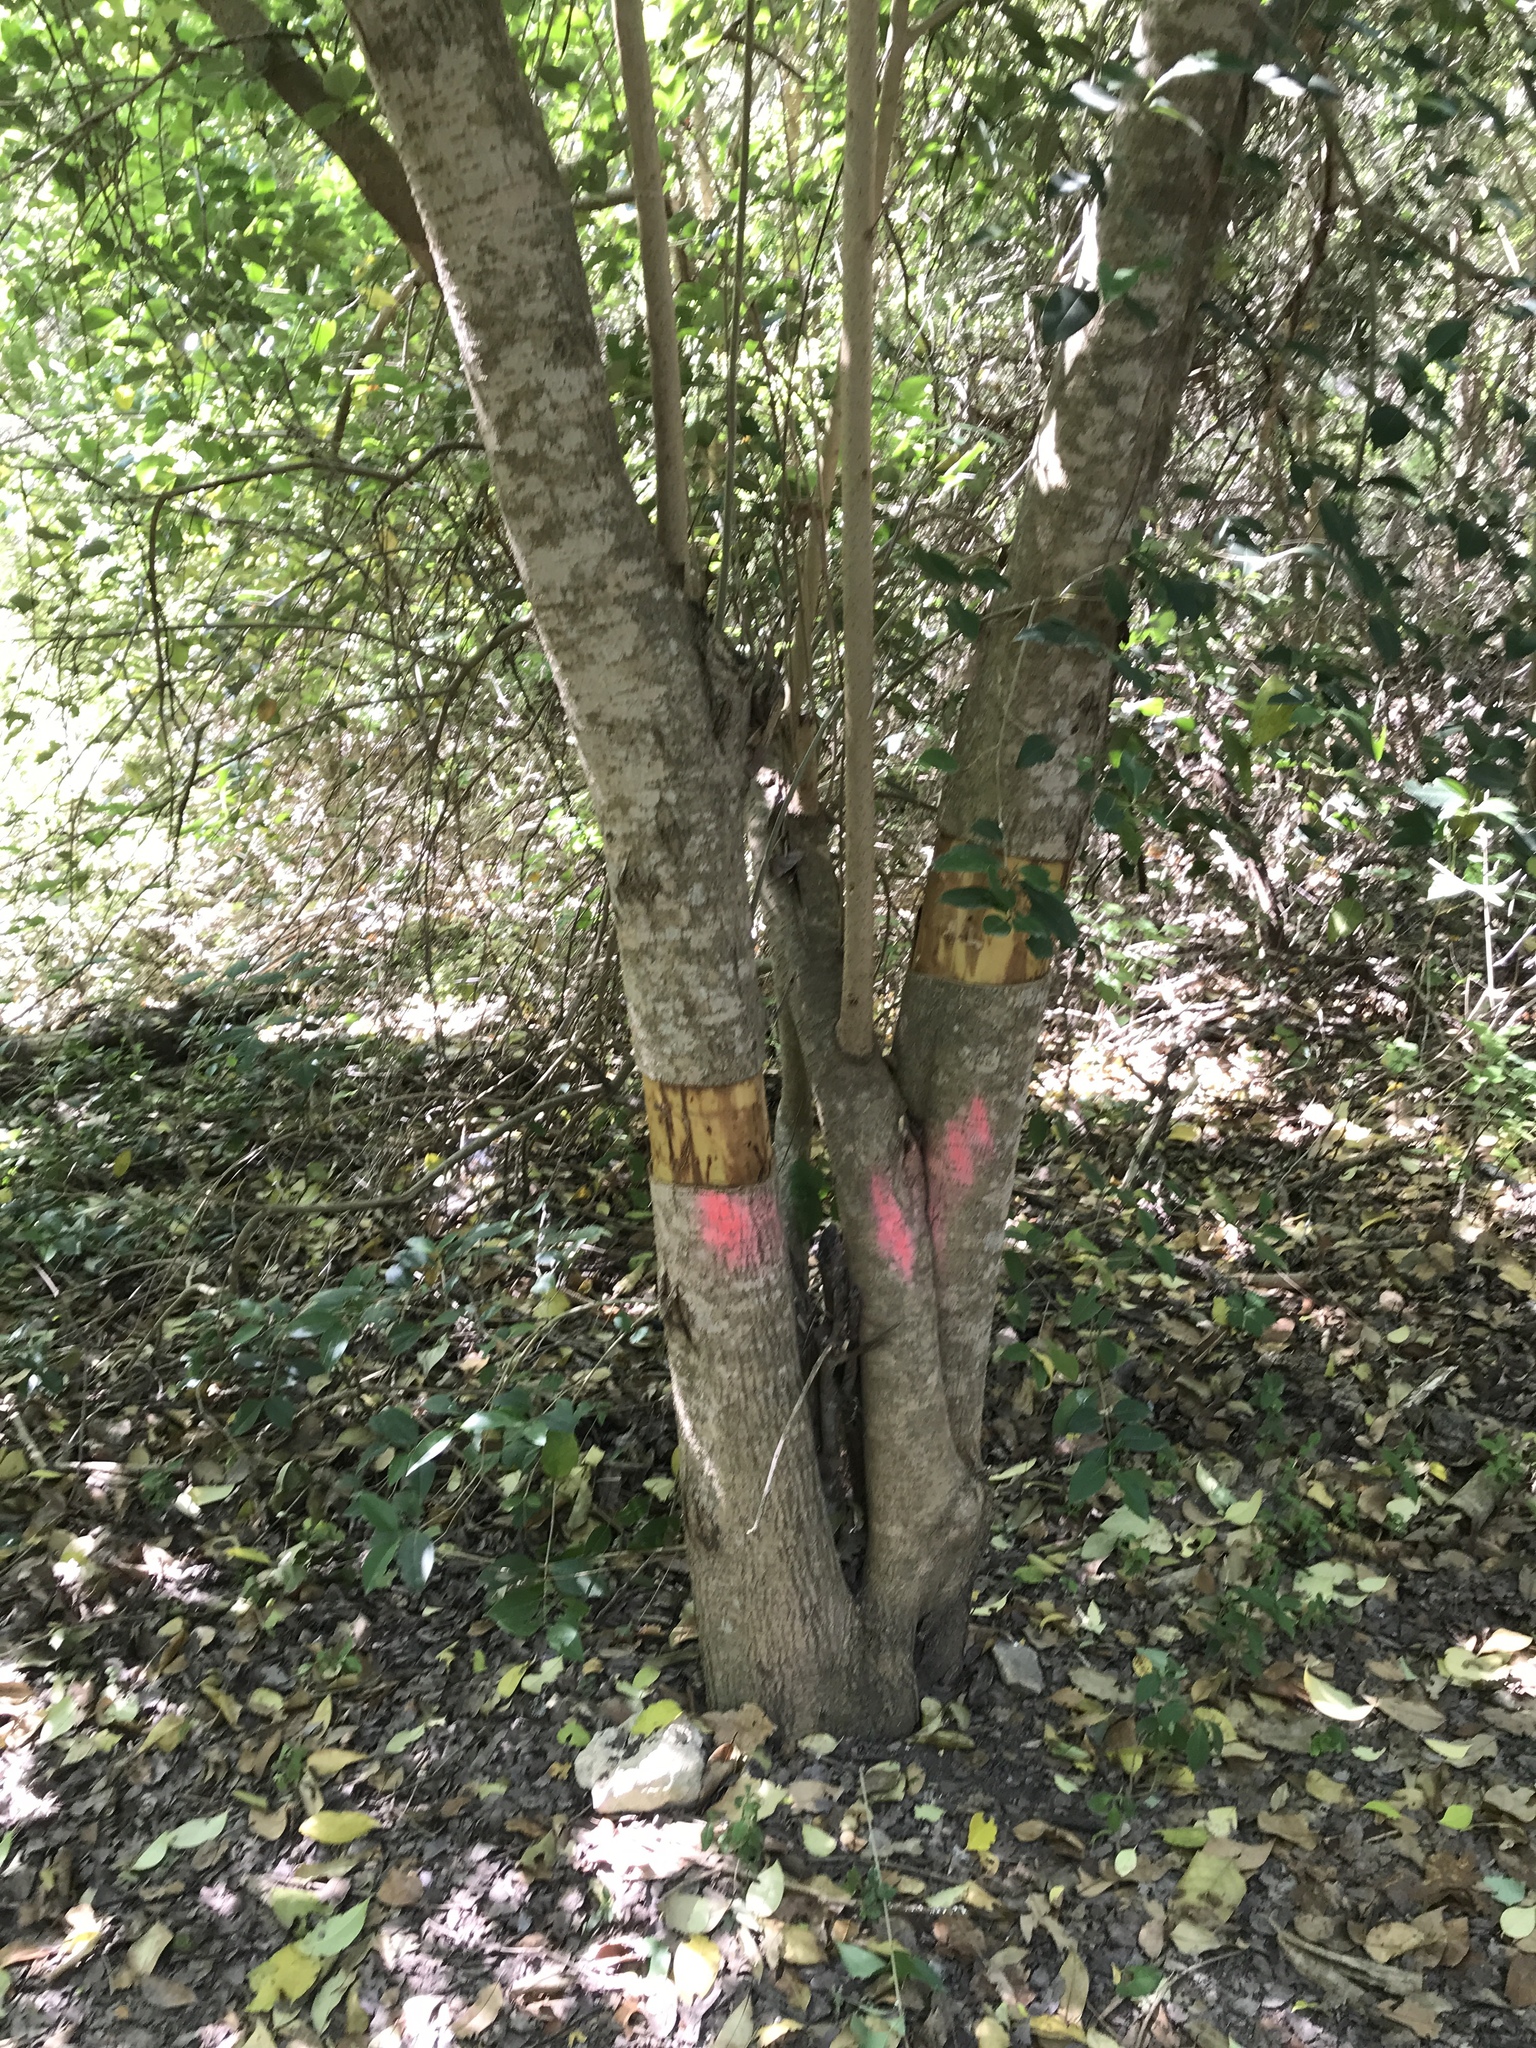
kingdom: Plantae
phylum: Tracheophyta
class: Magnoliopsida
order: Lamiales
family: Oleaceae
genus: Ligustrum
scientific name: Ligustrum lucidum
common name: Glossy privet
